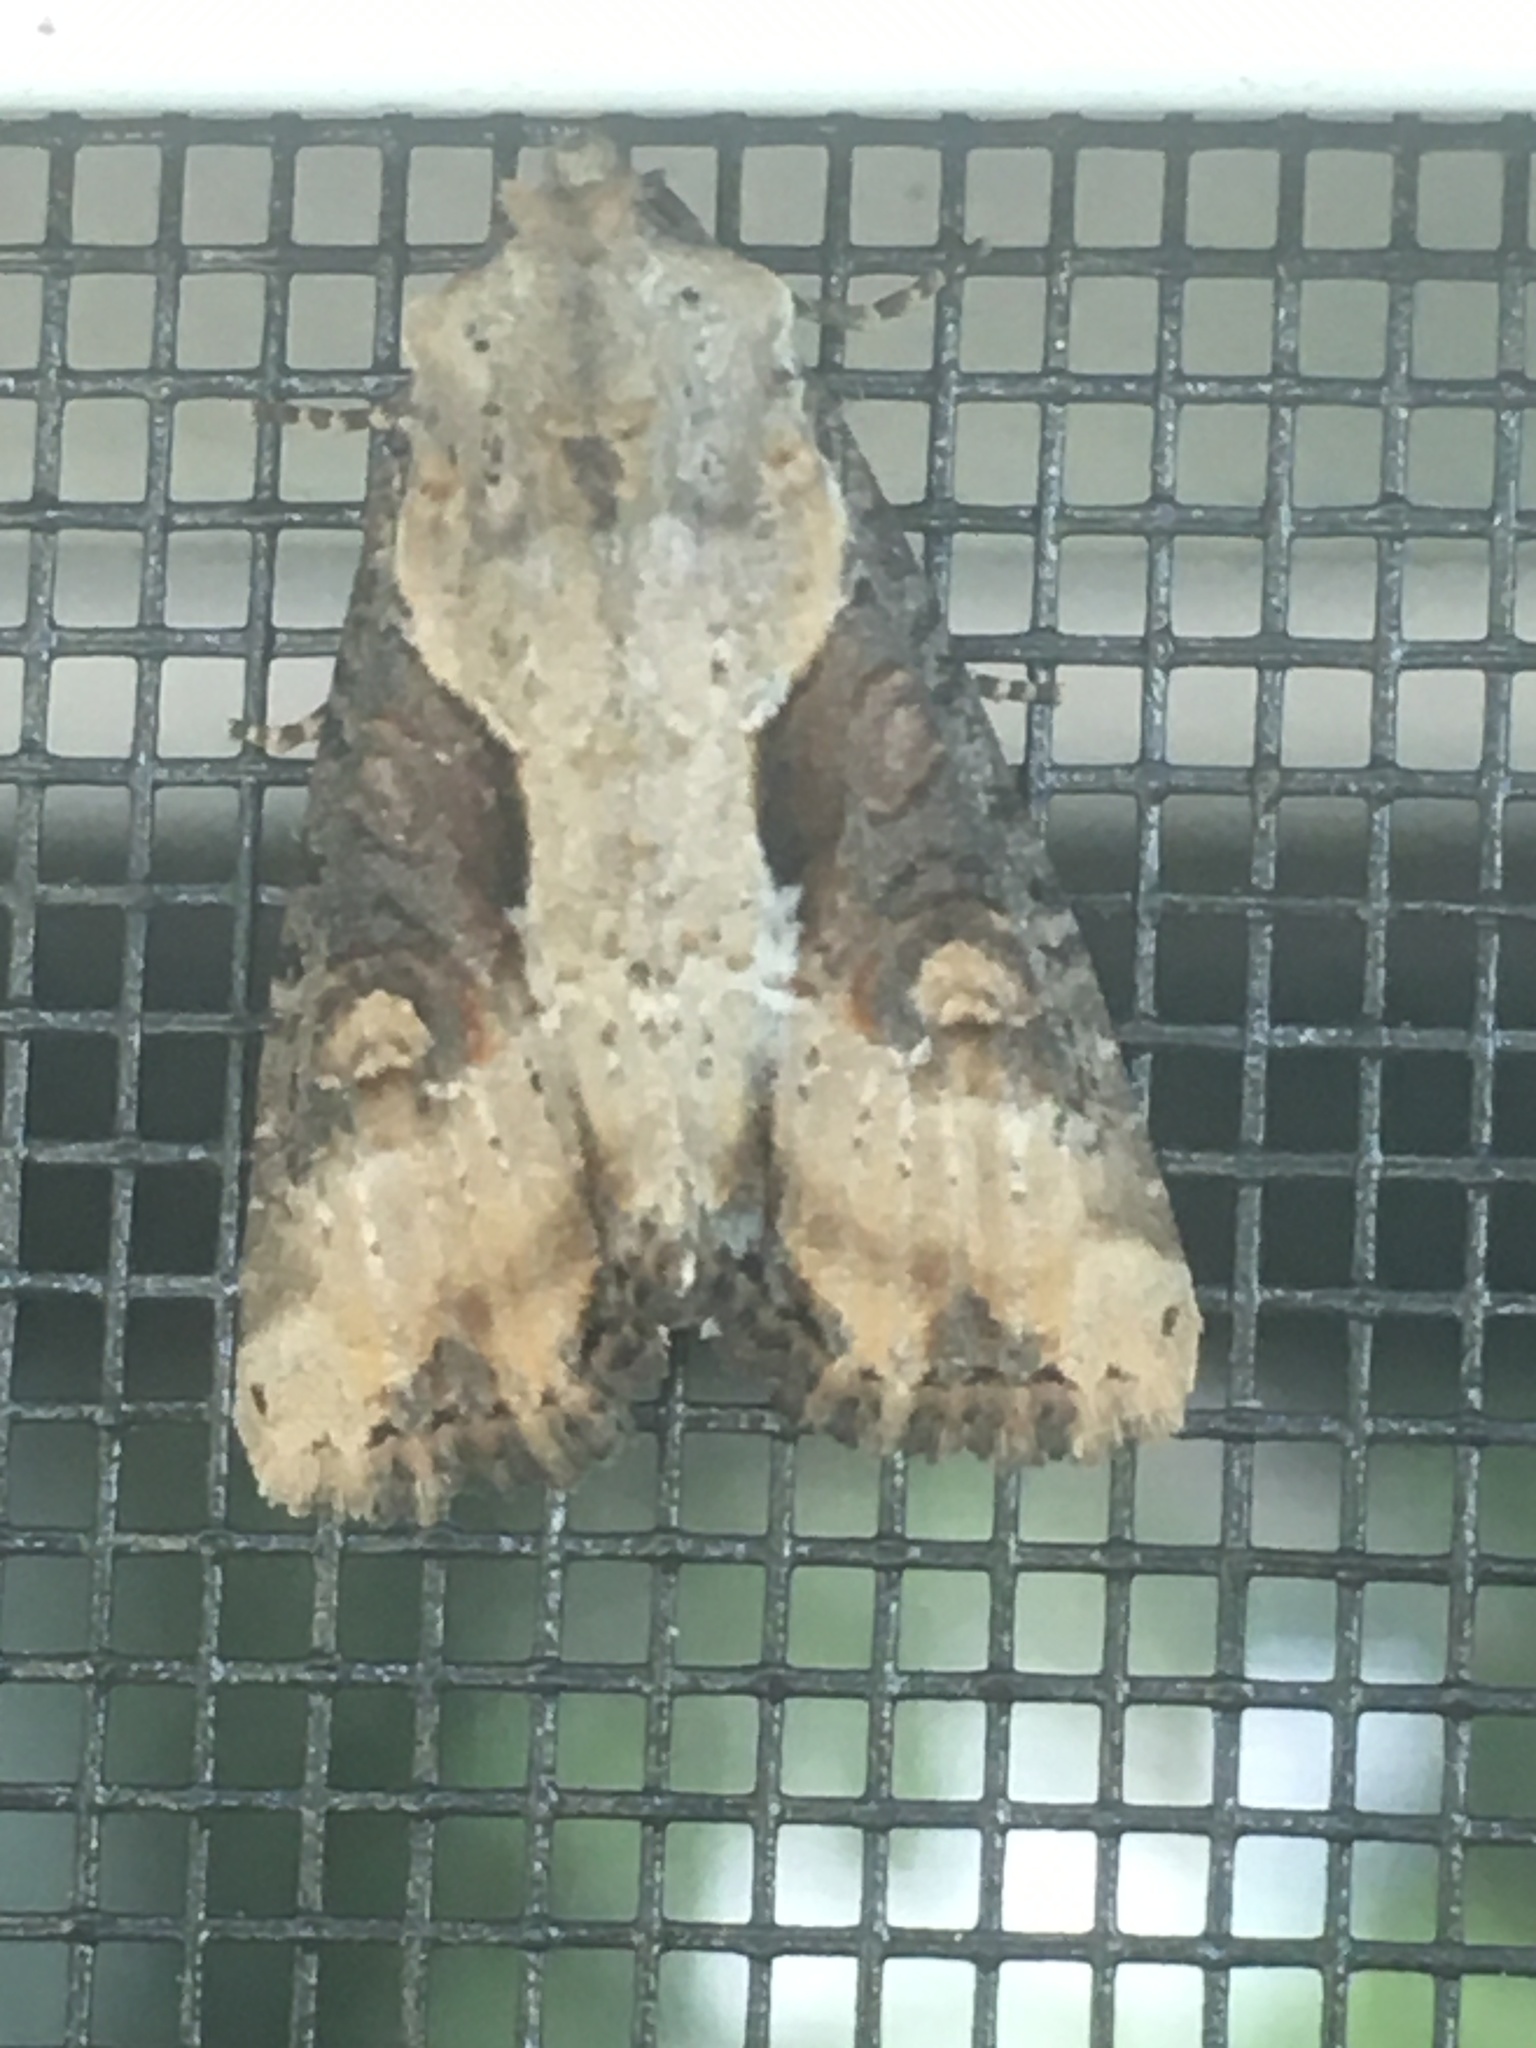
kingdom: Animalia
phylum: Arthropoda
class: Insecta
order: Lepidoptera
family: Noctuidae
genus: Lateroligia
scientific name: Lateroligia ophiogramma
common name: Double lobed
